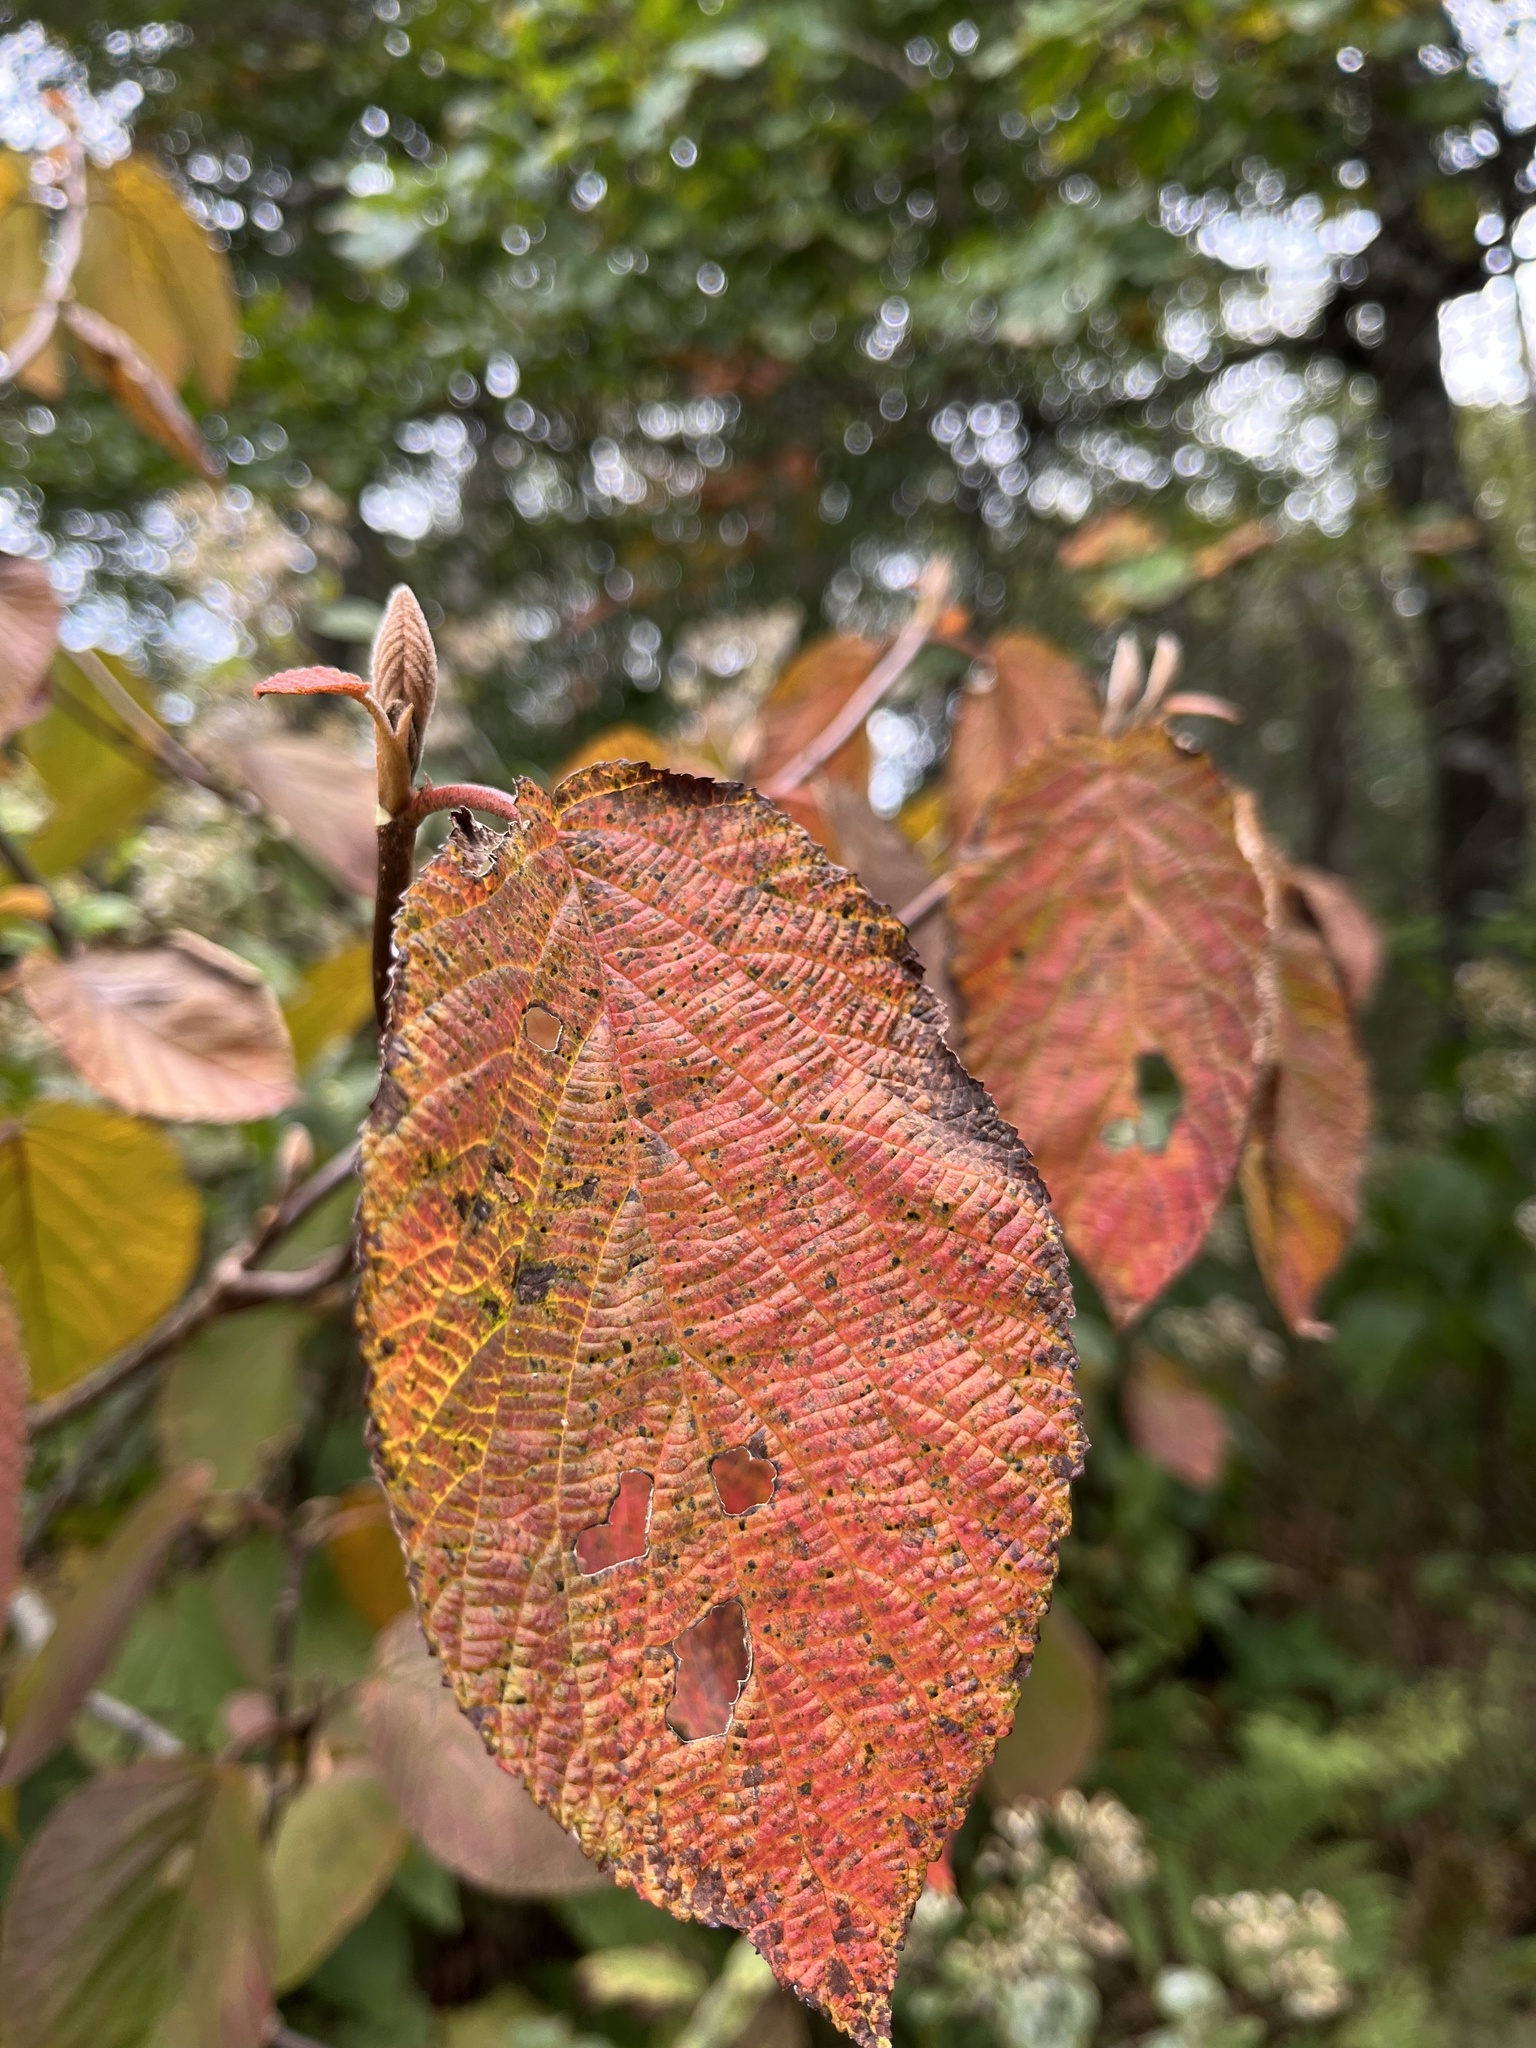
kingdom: Plantae
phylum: Tracheophyta
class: Magnoliopsida
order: Dipsacales
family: Viburnaceae
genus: Viburnum
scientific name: Viburnum lantanoides
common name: Hobblebush
